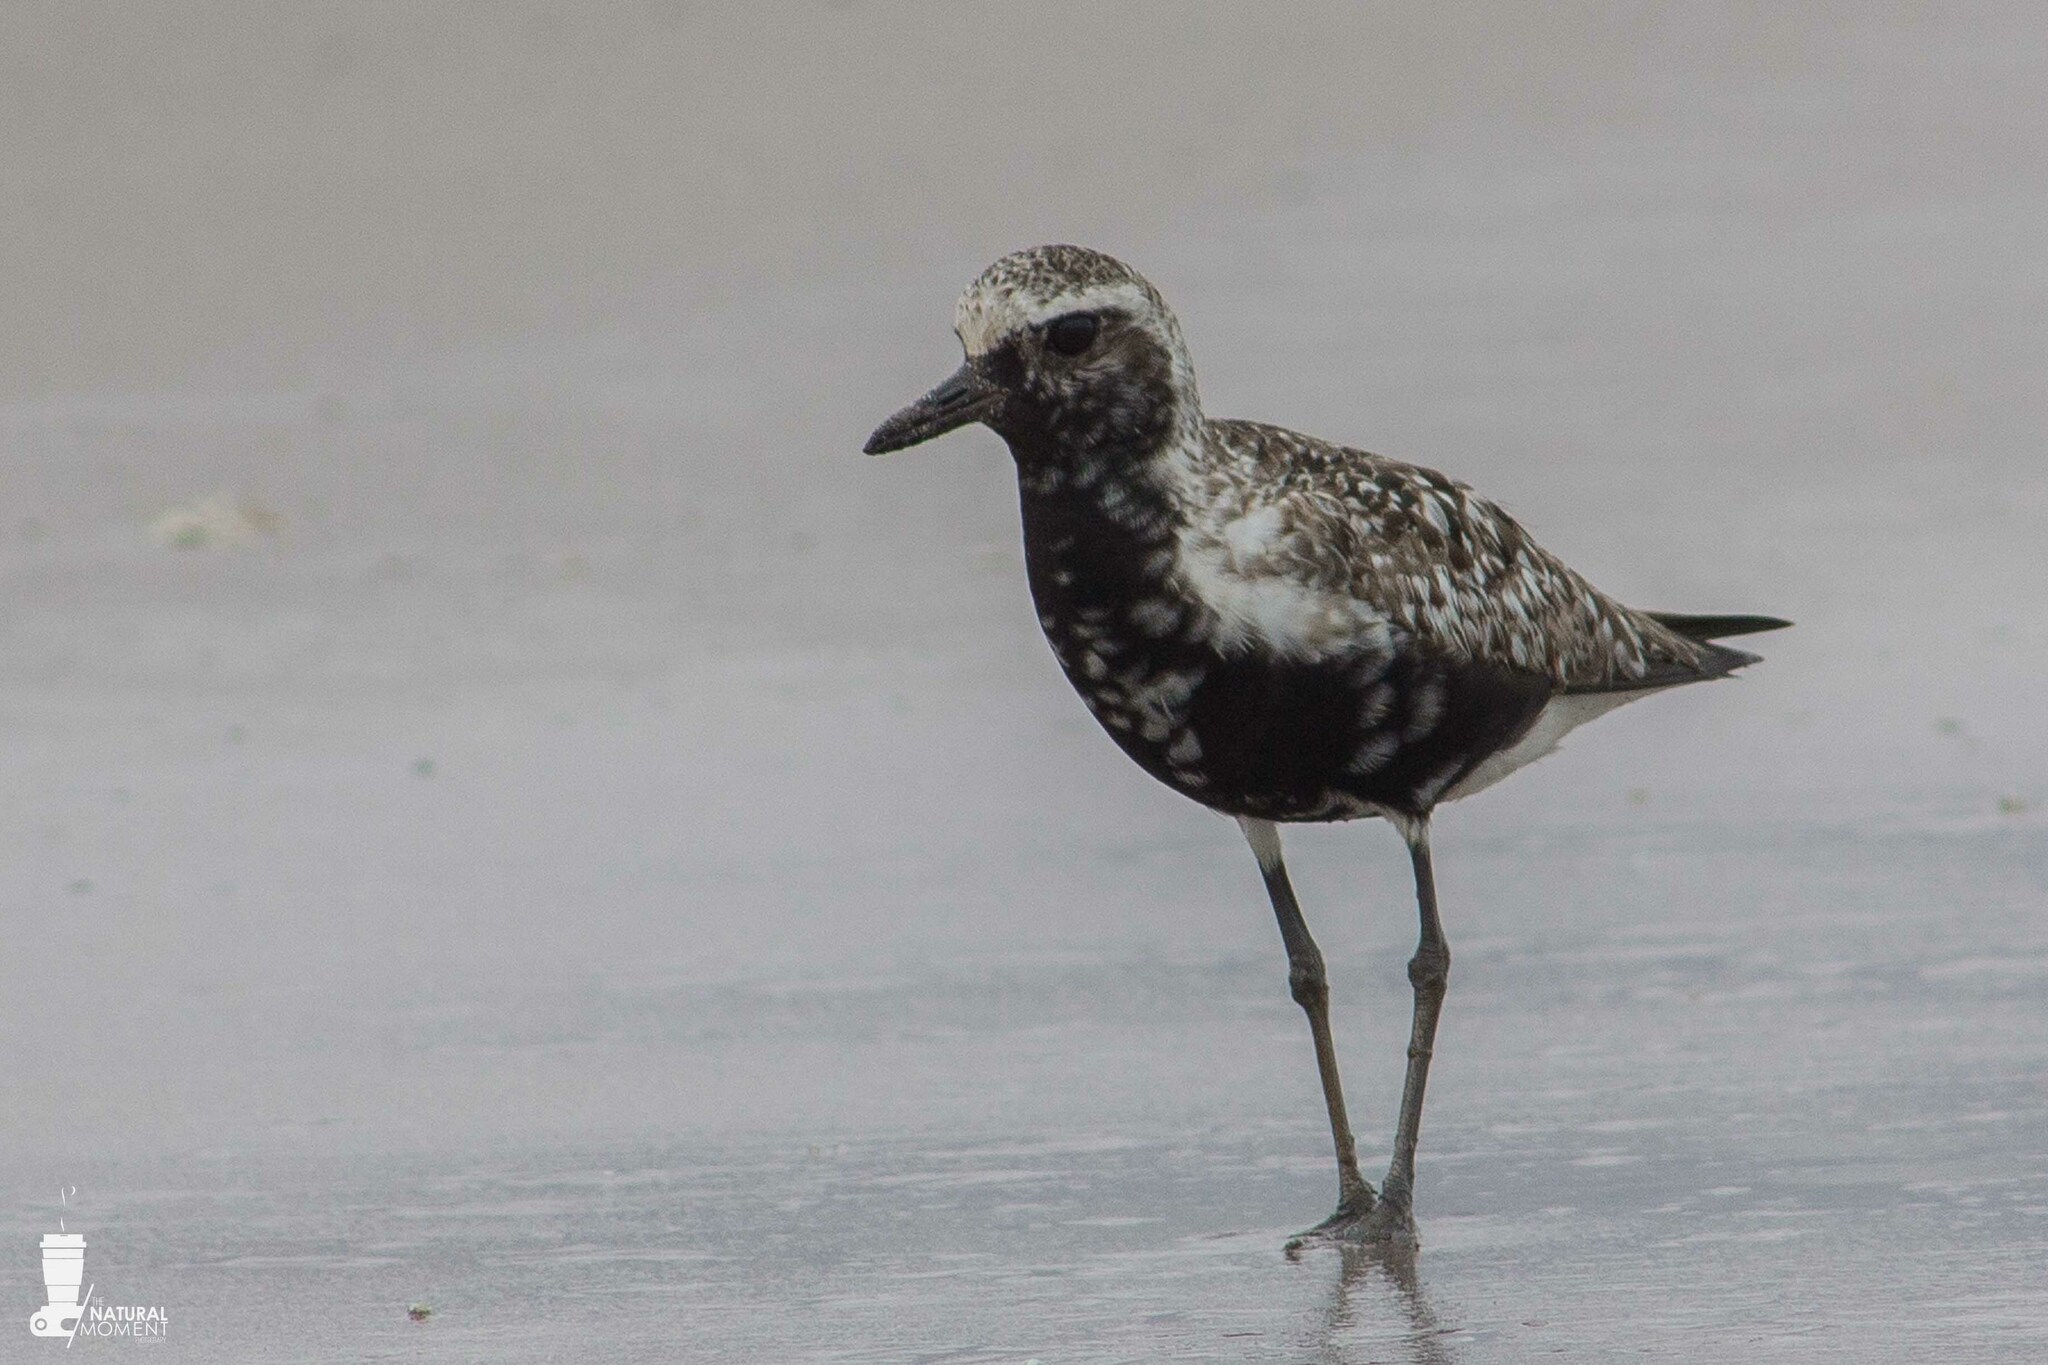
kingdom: Animalia
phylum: Chordata
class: Aves
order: Charadriiformes
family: Charadriidae
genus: Pluvialis
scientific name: Pluvialis squatarola
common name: Grey plover
